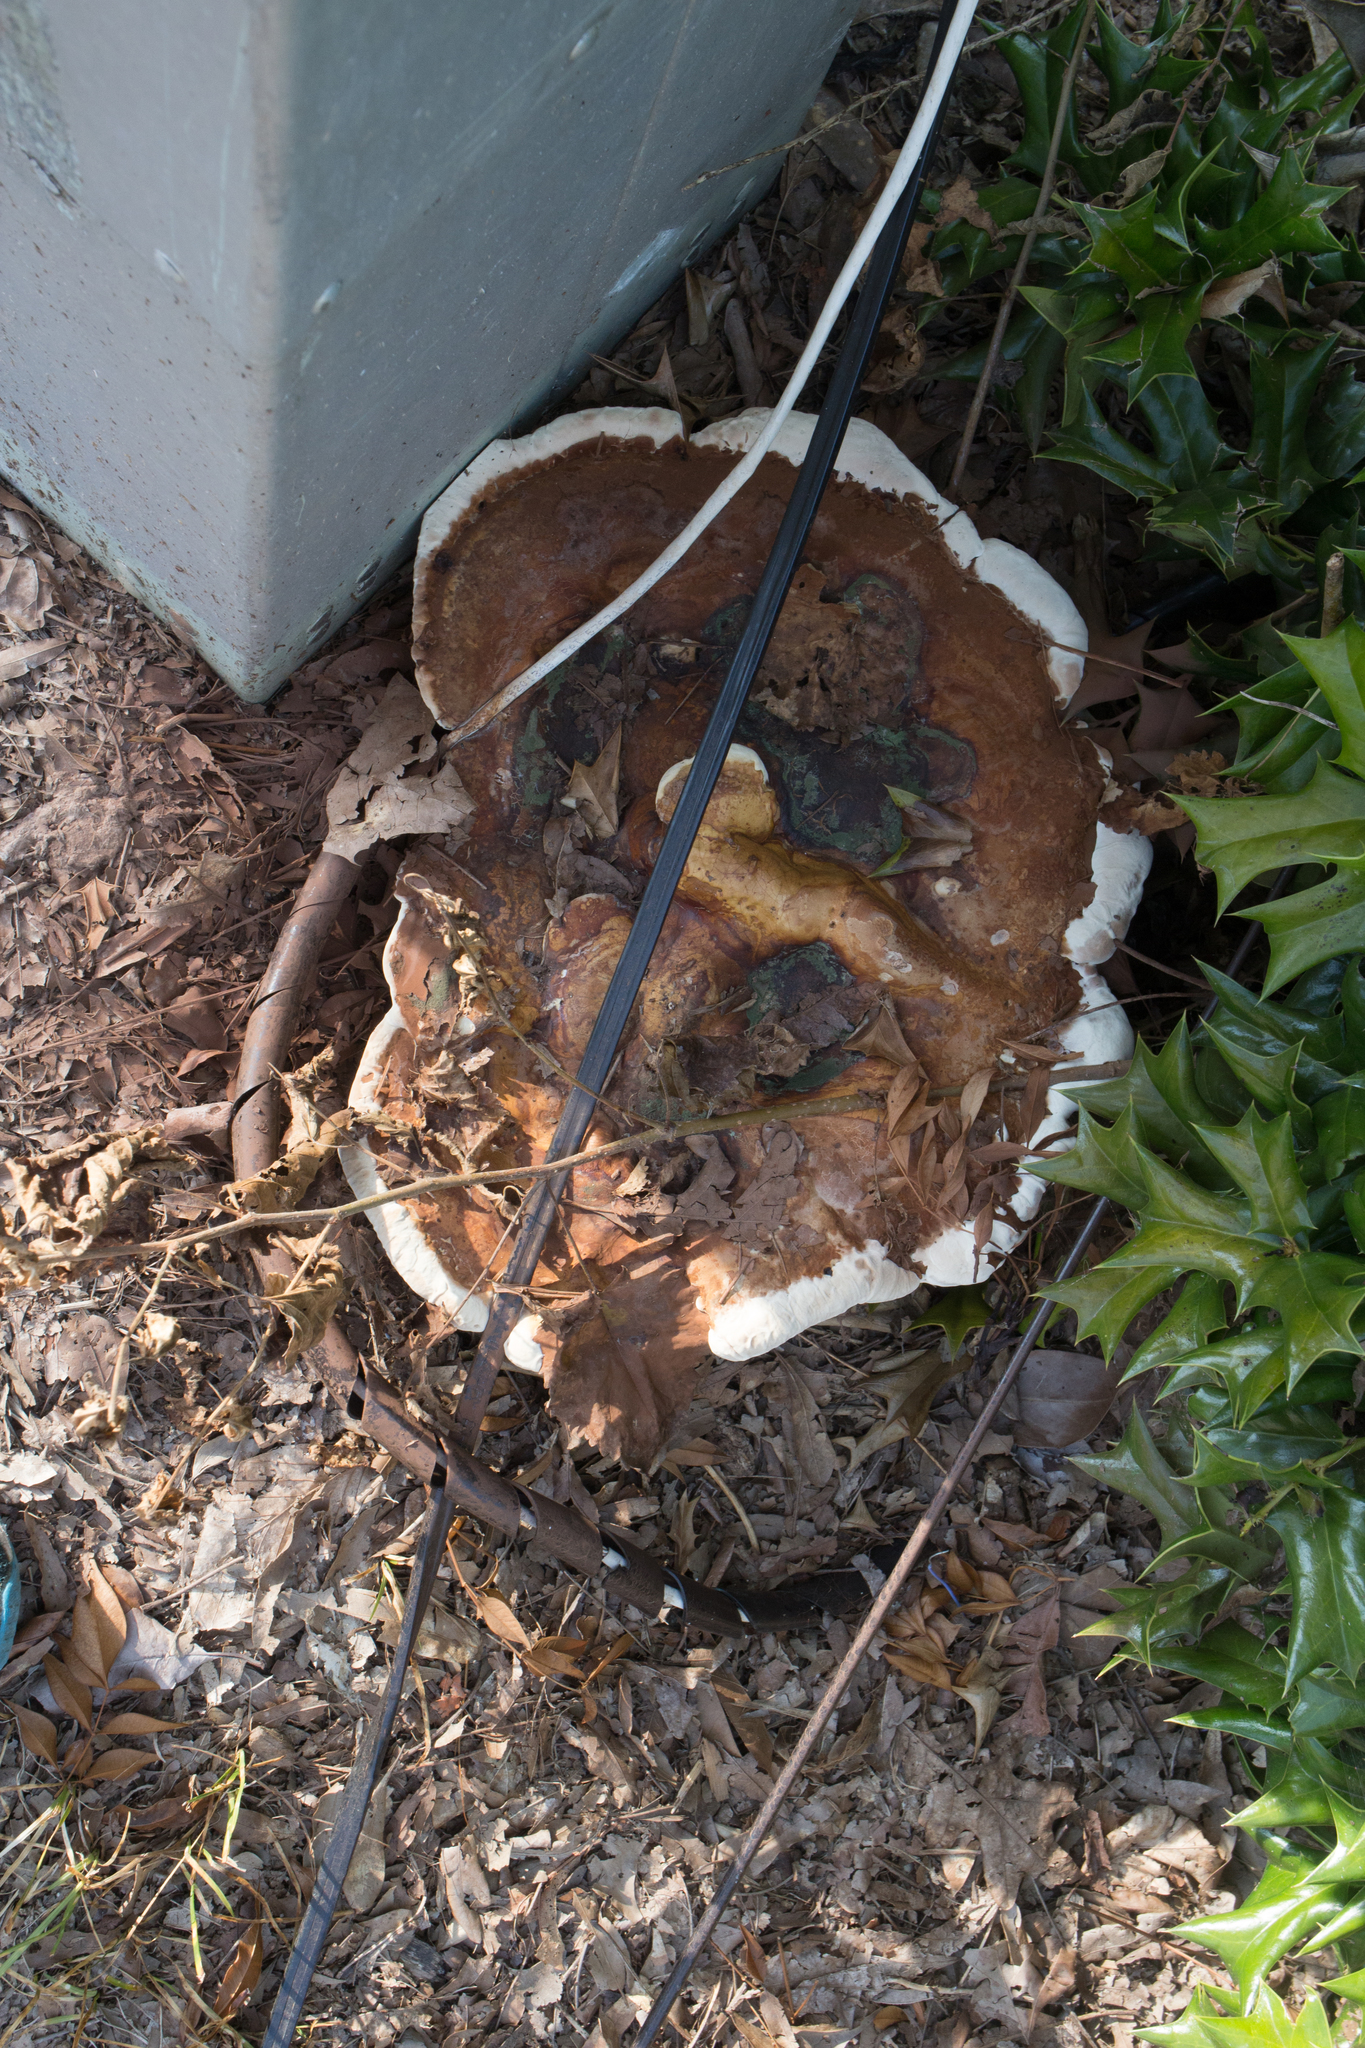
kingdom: Fungi
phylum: Basidiomycota
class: Agaricomycetes
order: Polyporales
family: Polyporaceae
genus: Ganoderma
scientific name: Ganoderma resinaceum
